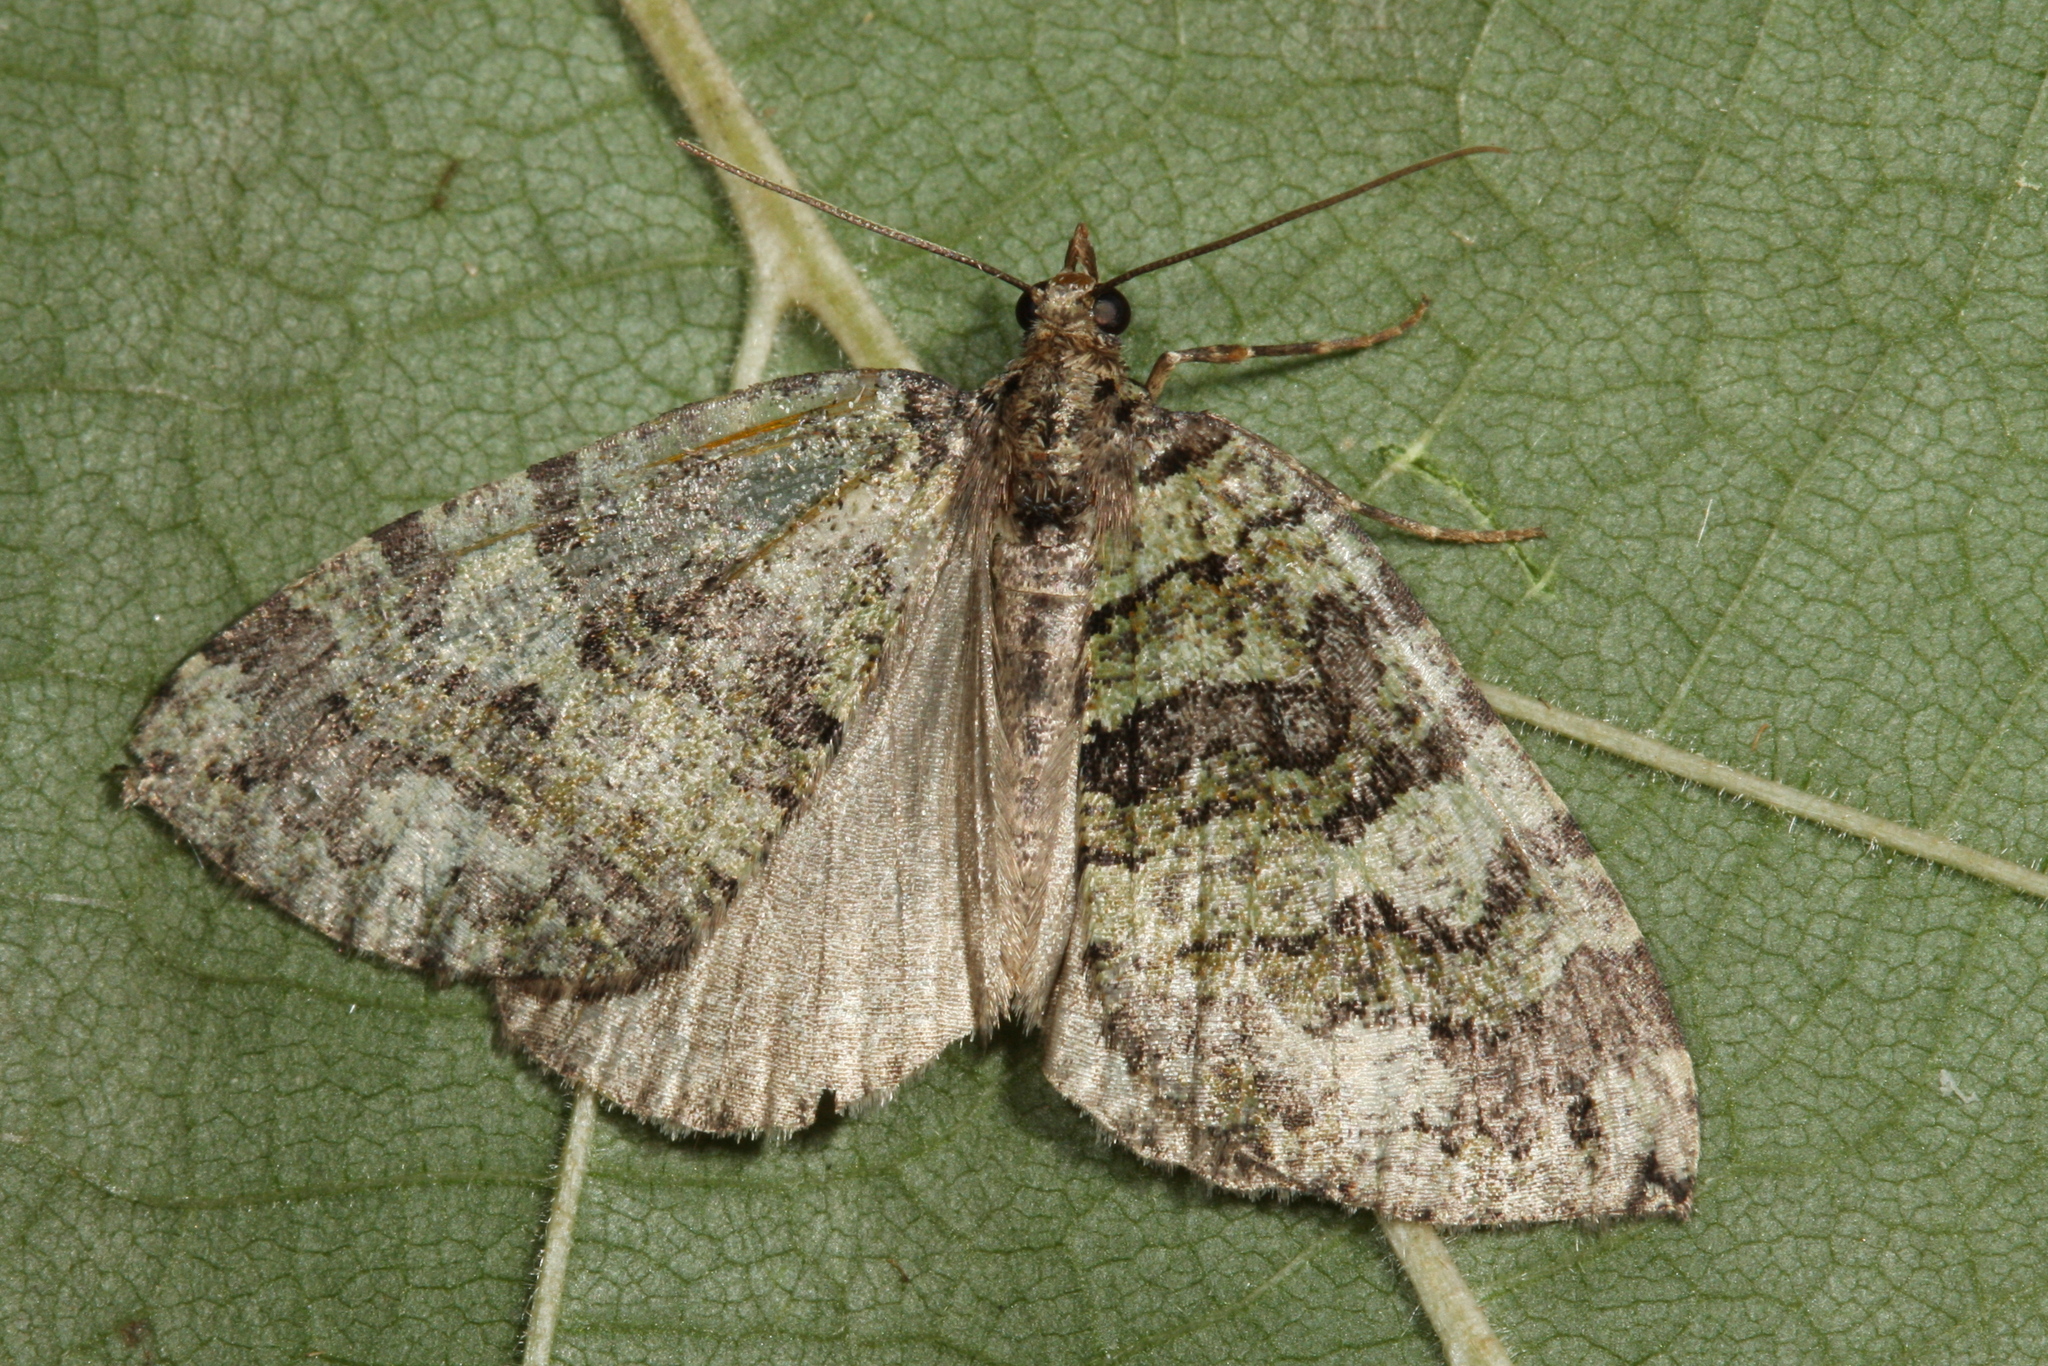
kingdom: Animalia
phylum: Arthropoda
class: Insecta
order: Lepidoptera
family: Geometridae
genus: Hydriomena
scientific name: Hydriomena furcata
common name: July highflyer
